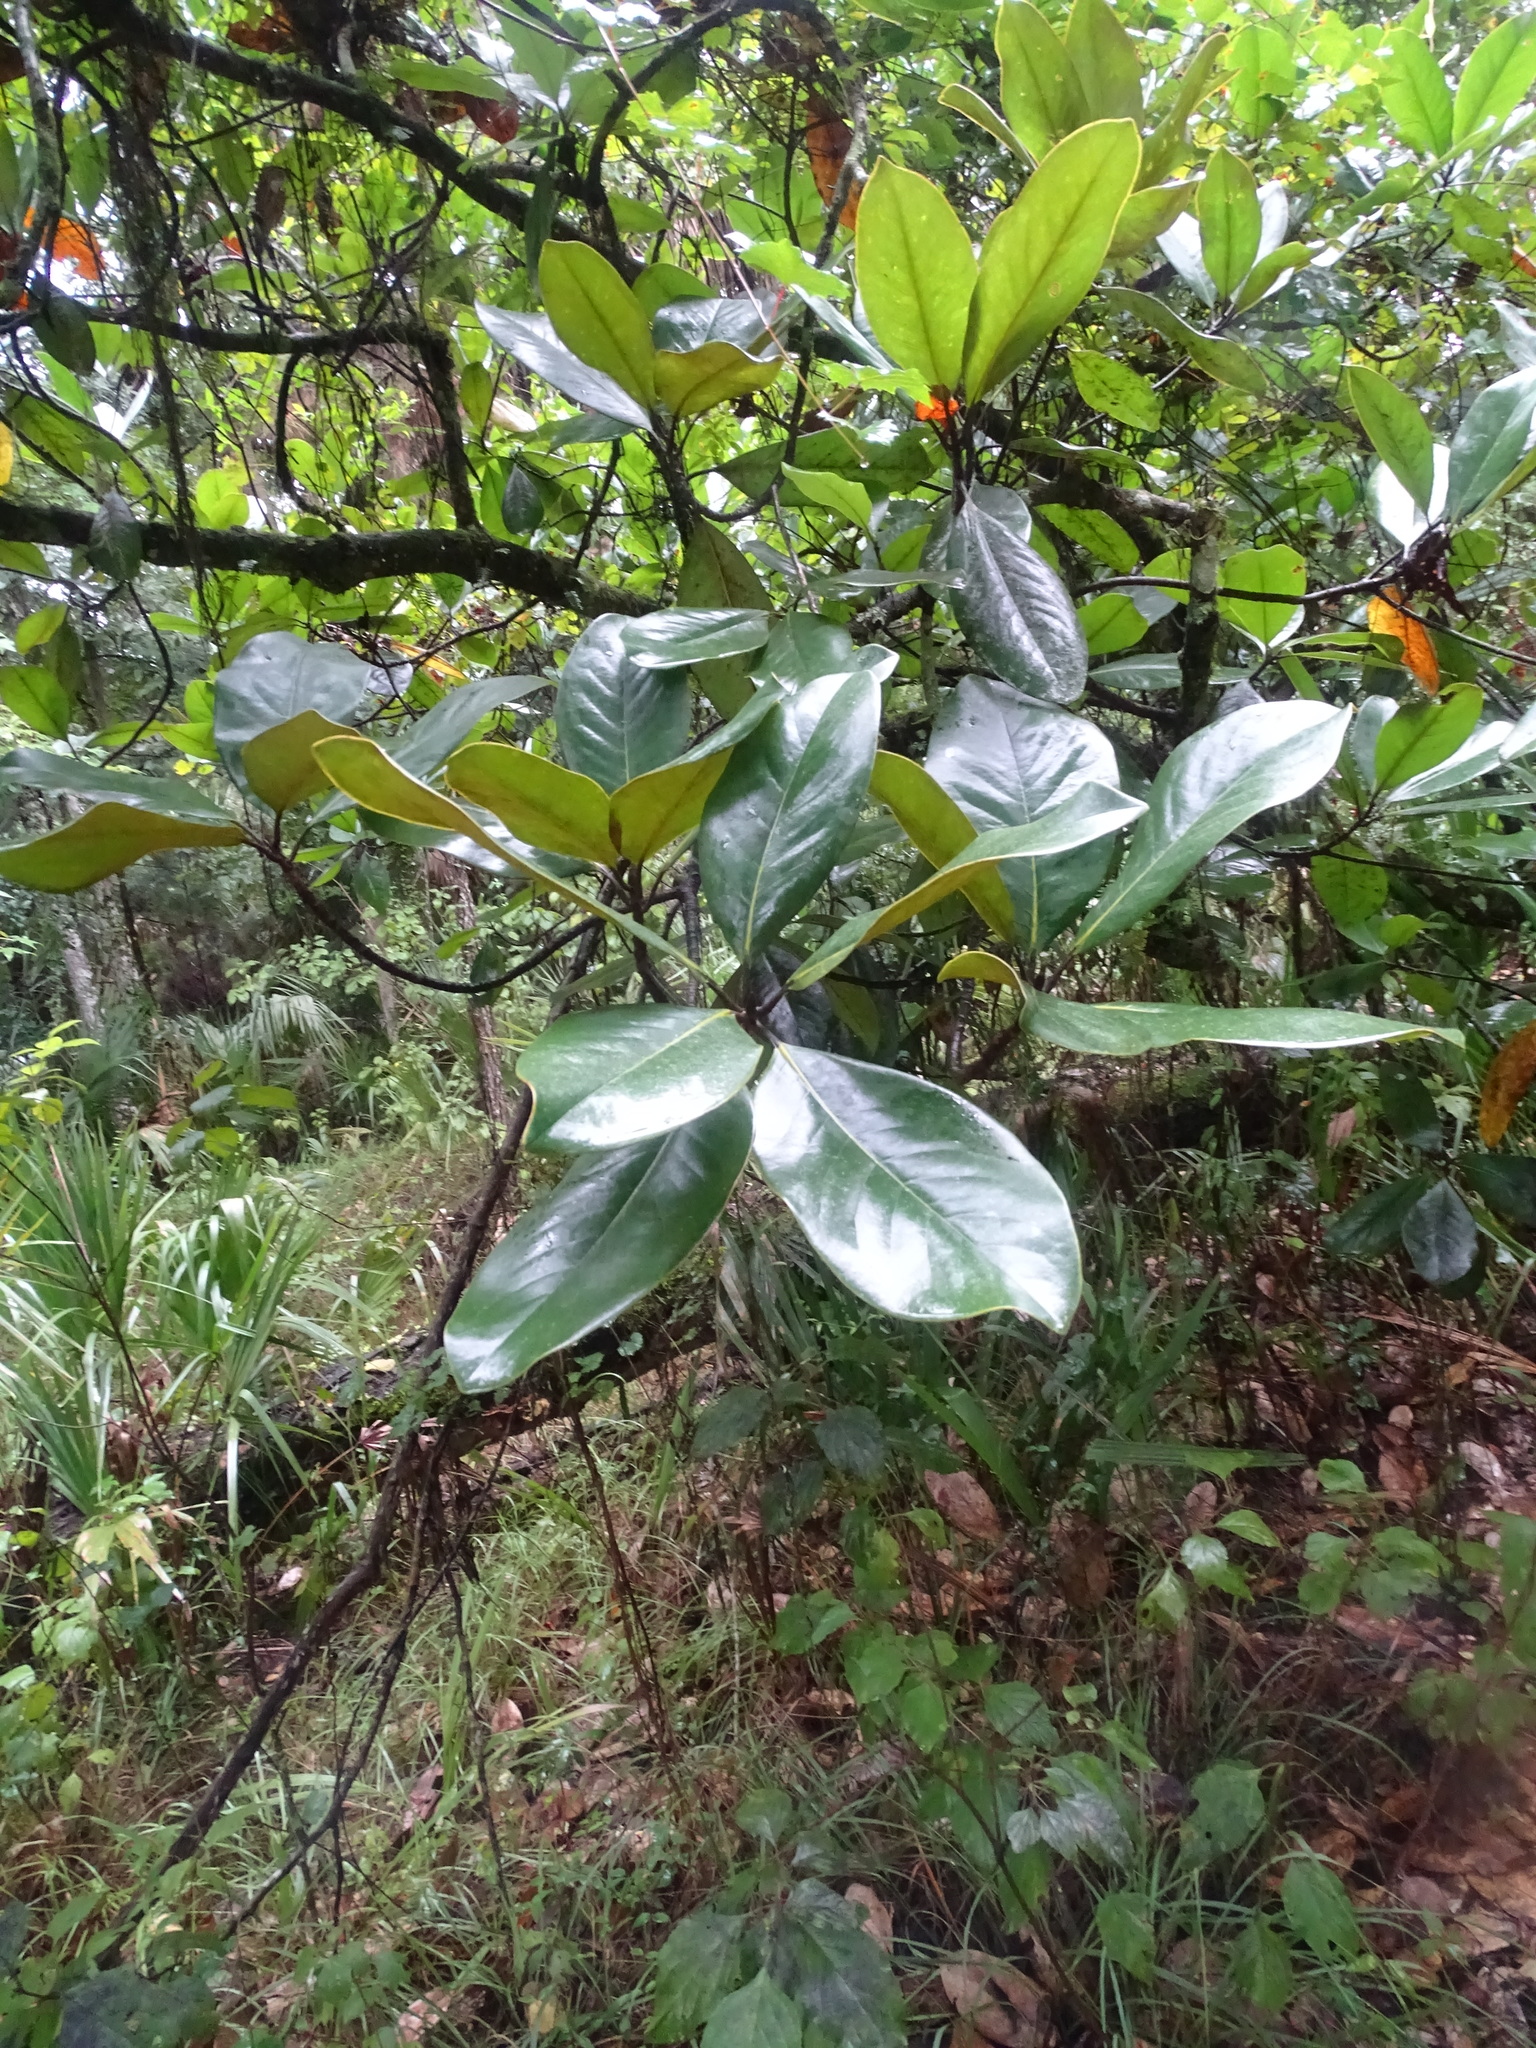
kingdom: Plantae
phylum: Tracheophyta
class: Magnoliopsida
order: Magnoliales
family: Magnoliaceae
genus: Magnolia
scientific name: Magnolia grandiflora
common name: Southern magnolia
